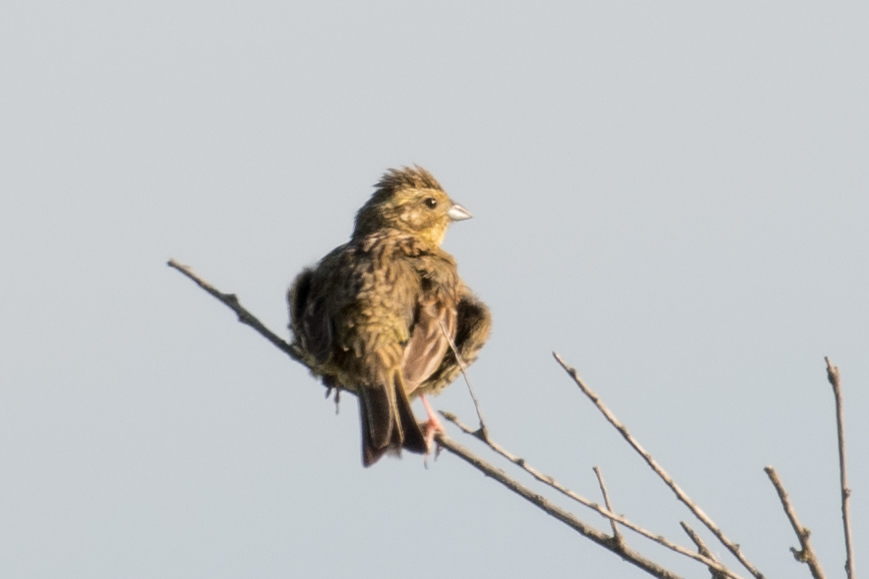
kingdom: Animalia
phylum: Chordata
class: Aves
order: Passeriformes
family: Emberizidae
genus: Emberiza
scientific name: Emberiza cirlus
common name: Cirl bunting
